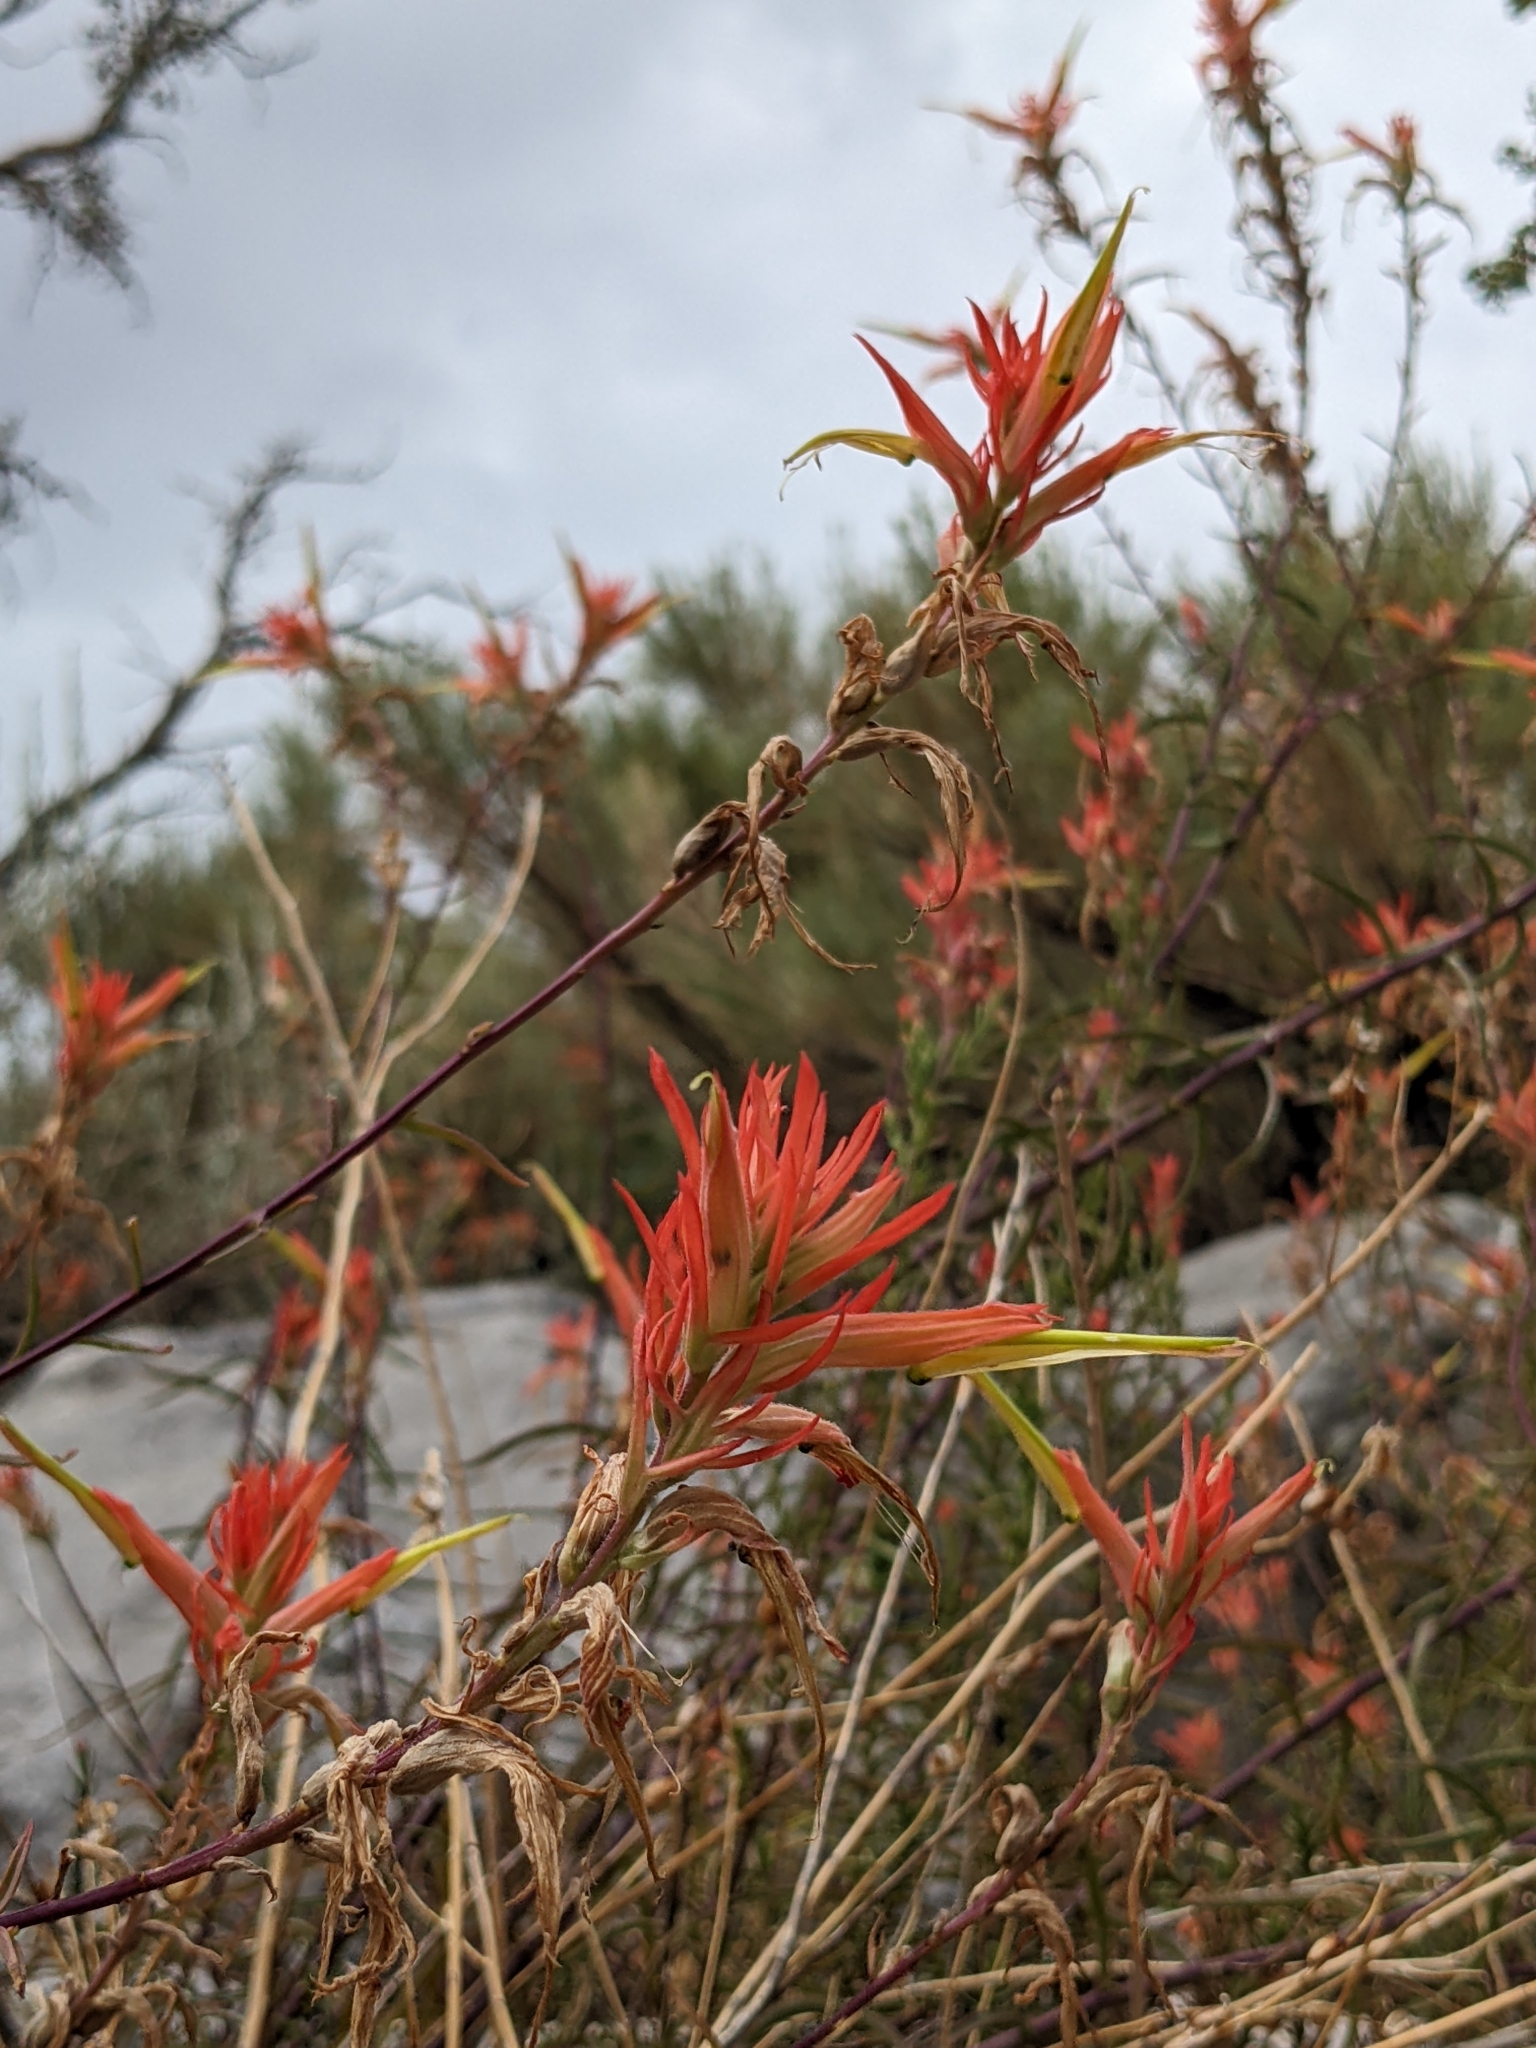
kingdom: Plantae
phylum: Tracheophyta
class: Magnoliopsida
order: Lamiales
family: Orobanchaceae
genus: Castilleja
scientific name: Castilleja linariifolia
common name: Wyoming paintbrush
